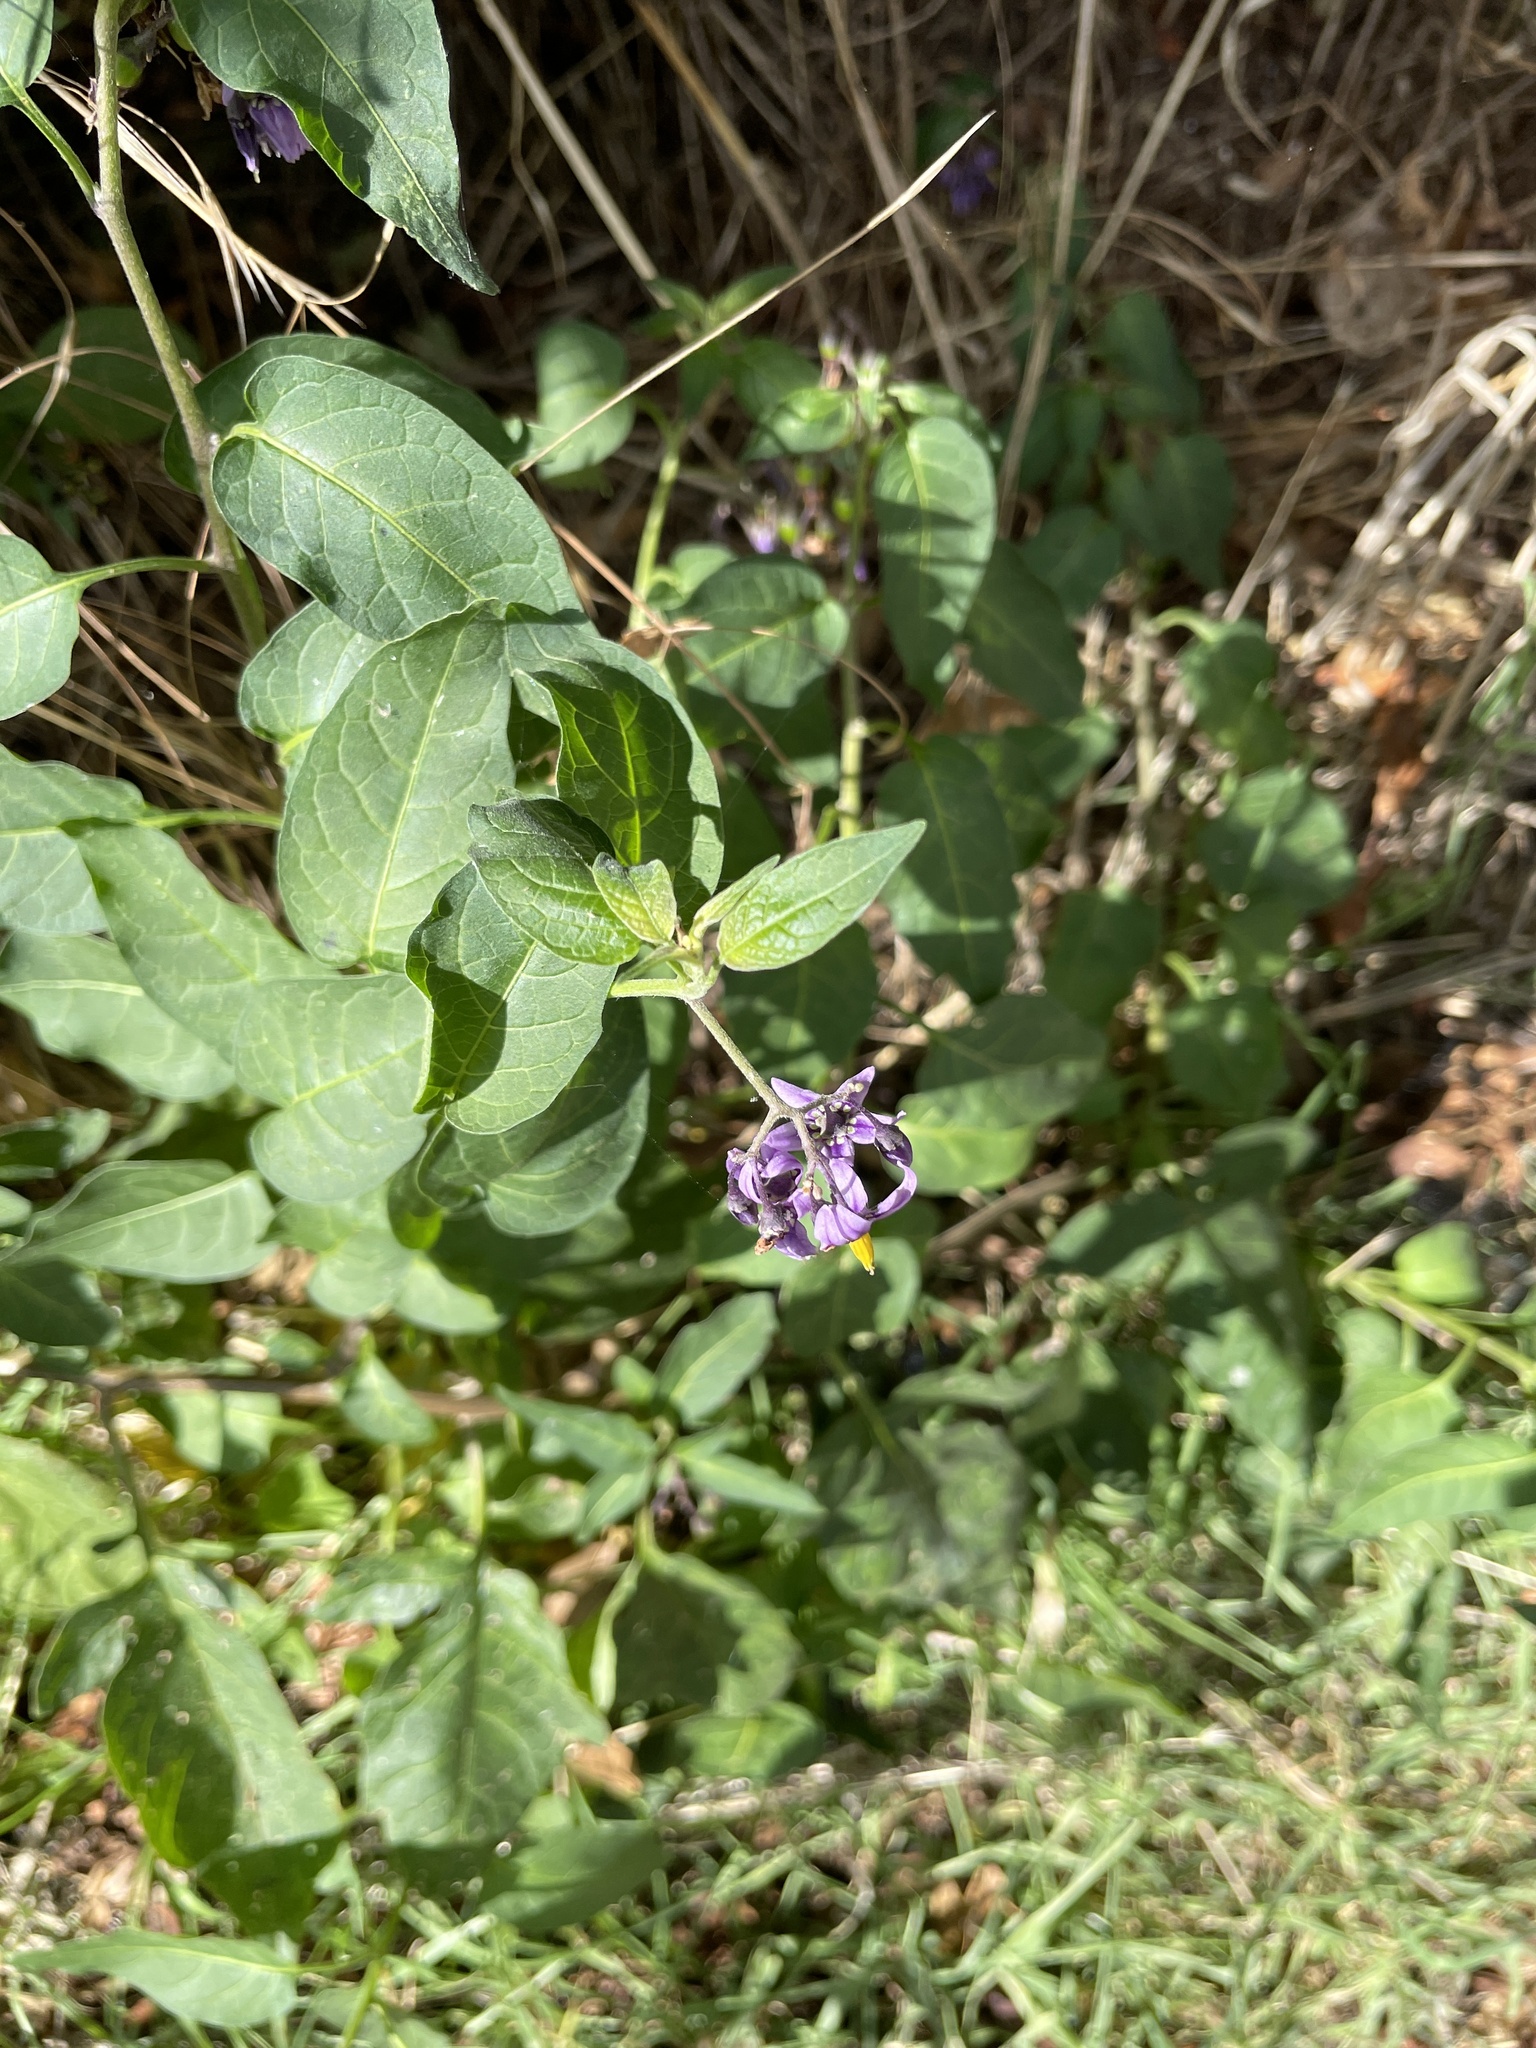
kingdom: Plantae
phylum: Tracheophyta
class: Magnoliopsida
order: Solanales
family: Solanaceae
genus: Solanum
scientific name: Solanum dulcamara
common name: Climbing nightshade
